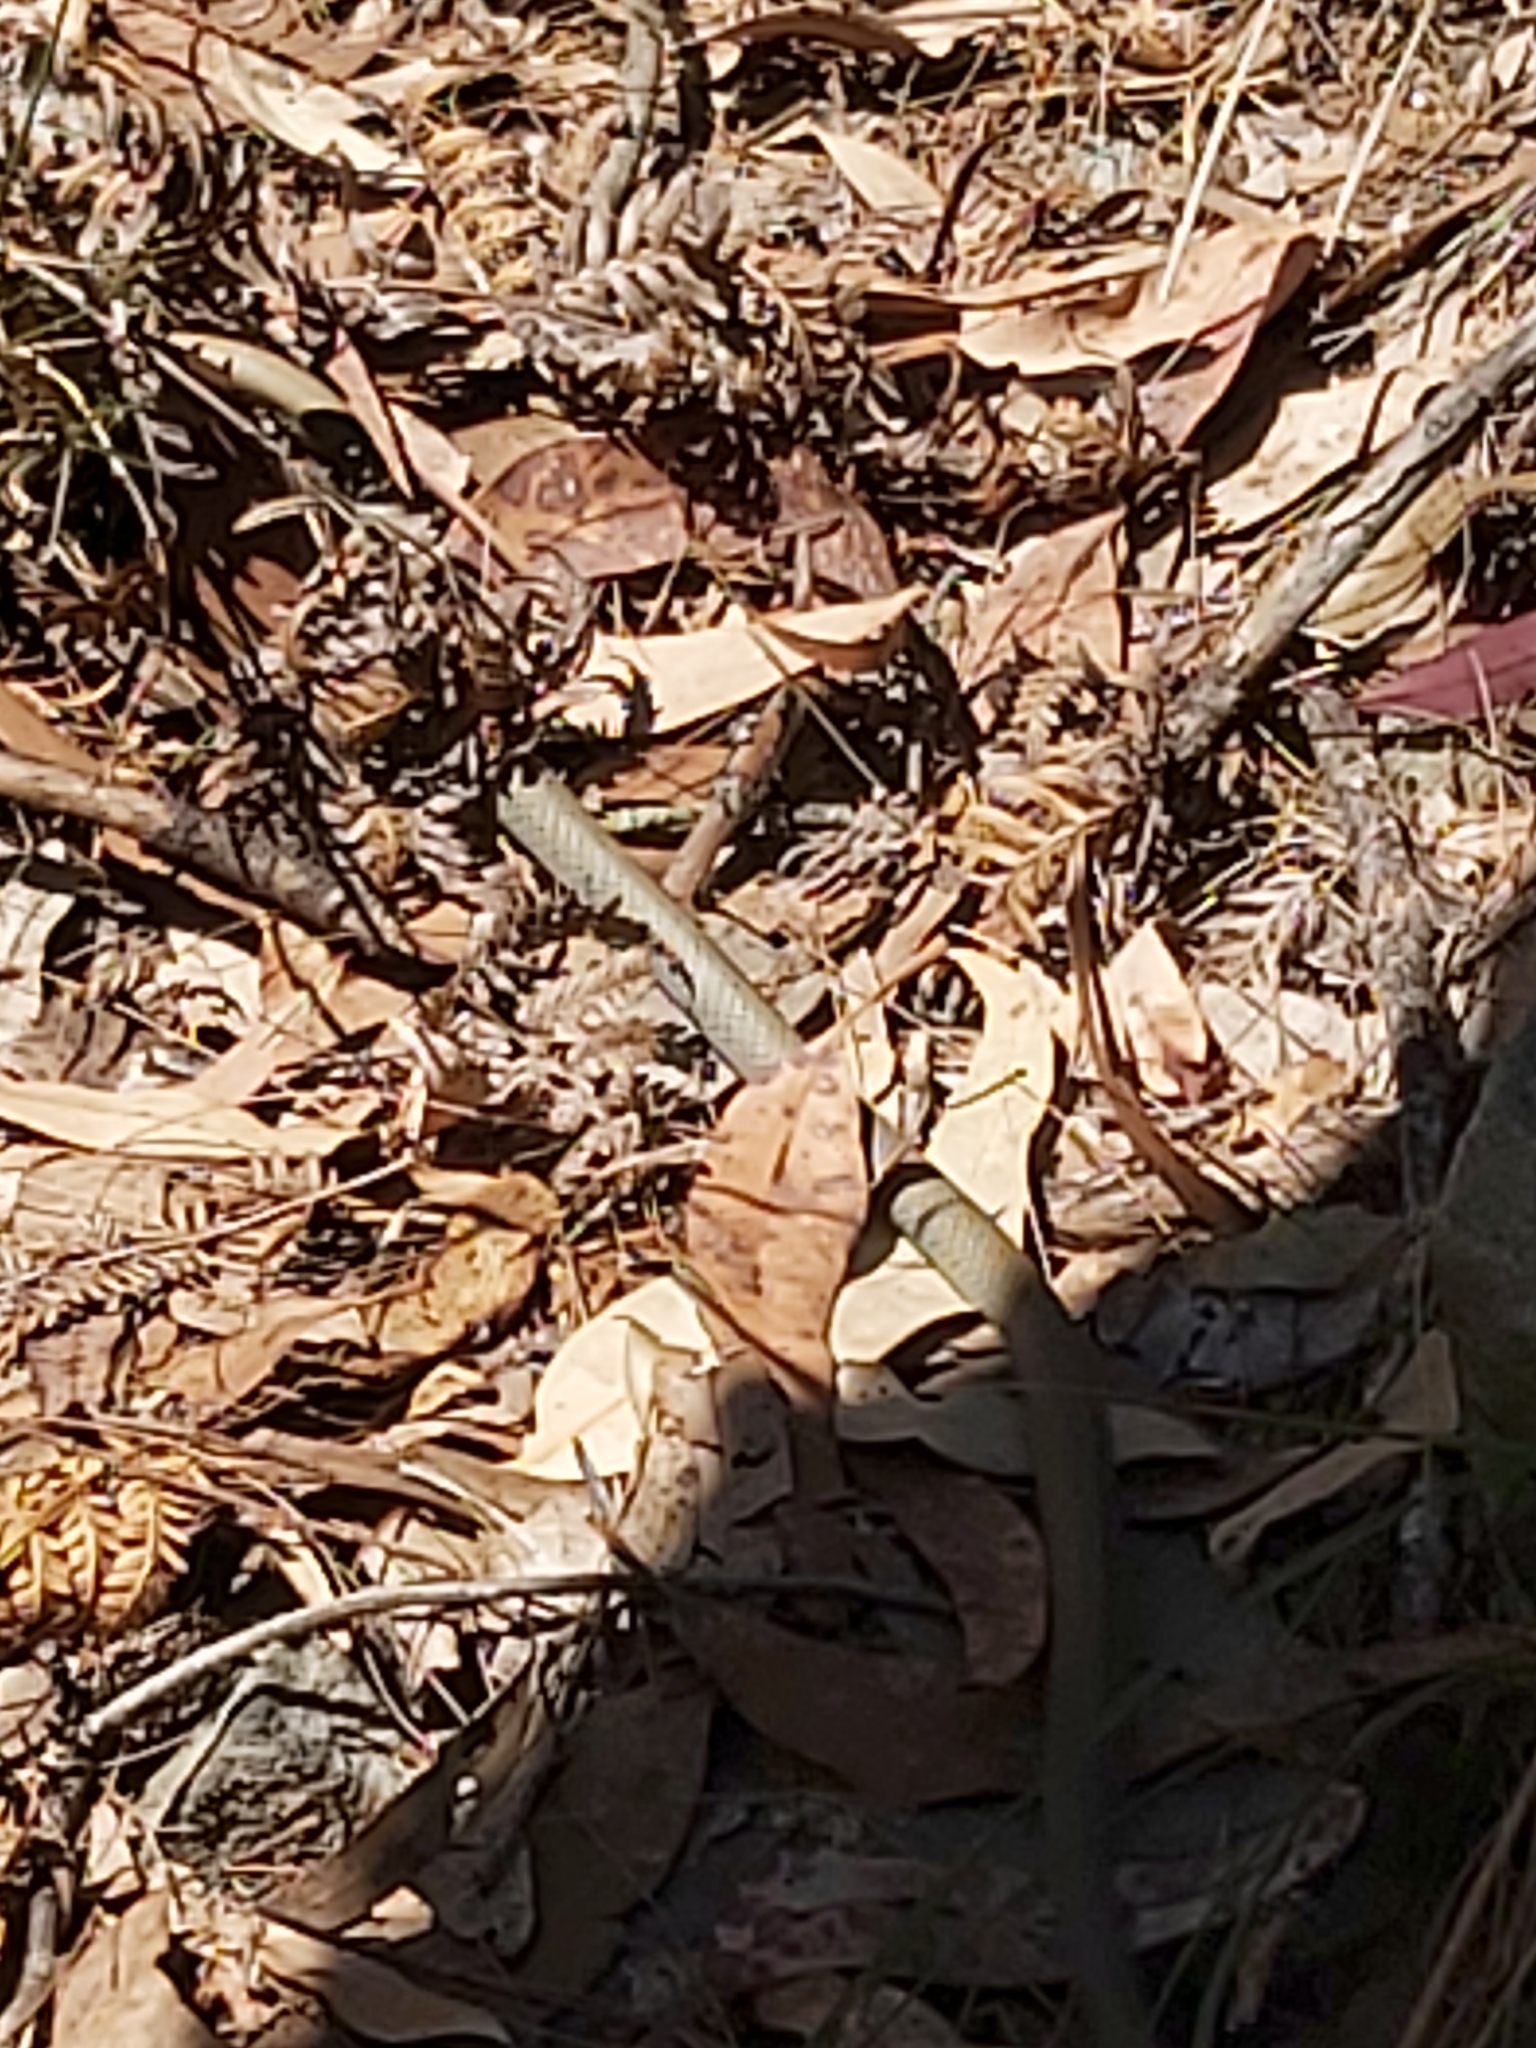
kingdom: Animalia
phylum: Chordata
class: Squamata
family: Elapidae
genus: Demansia
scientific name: Demansia psammophis
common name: Yellow-faced whip snake
